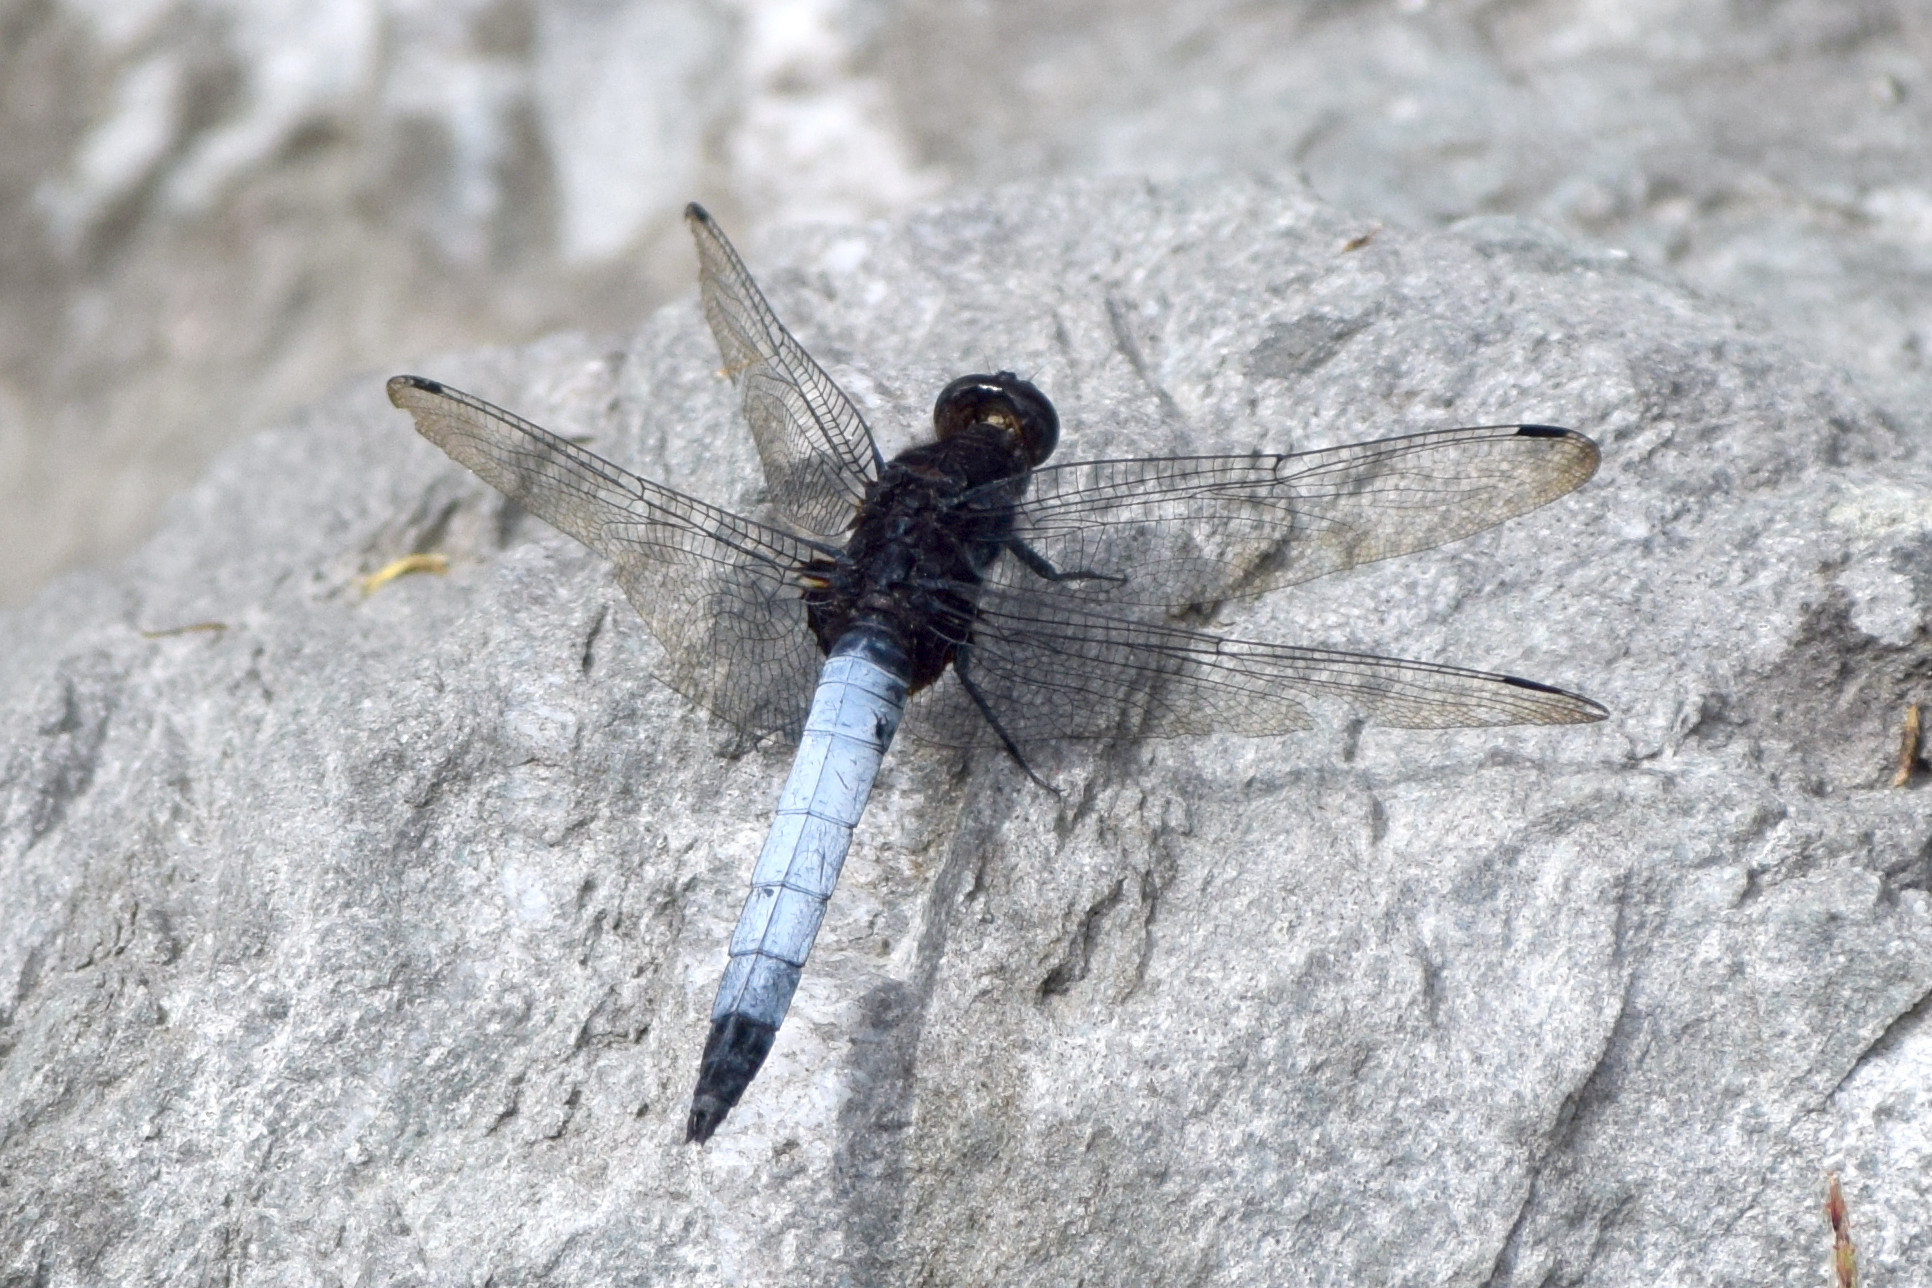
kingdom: Animalia
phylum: Arthropoda
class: Insecta
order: Odonata
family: Libellulidae
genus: Orthetrum
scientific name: Orthetrum triangulare
